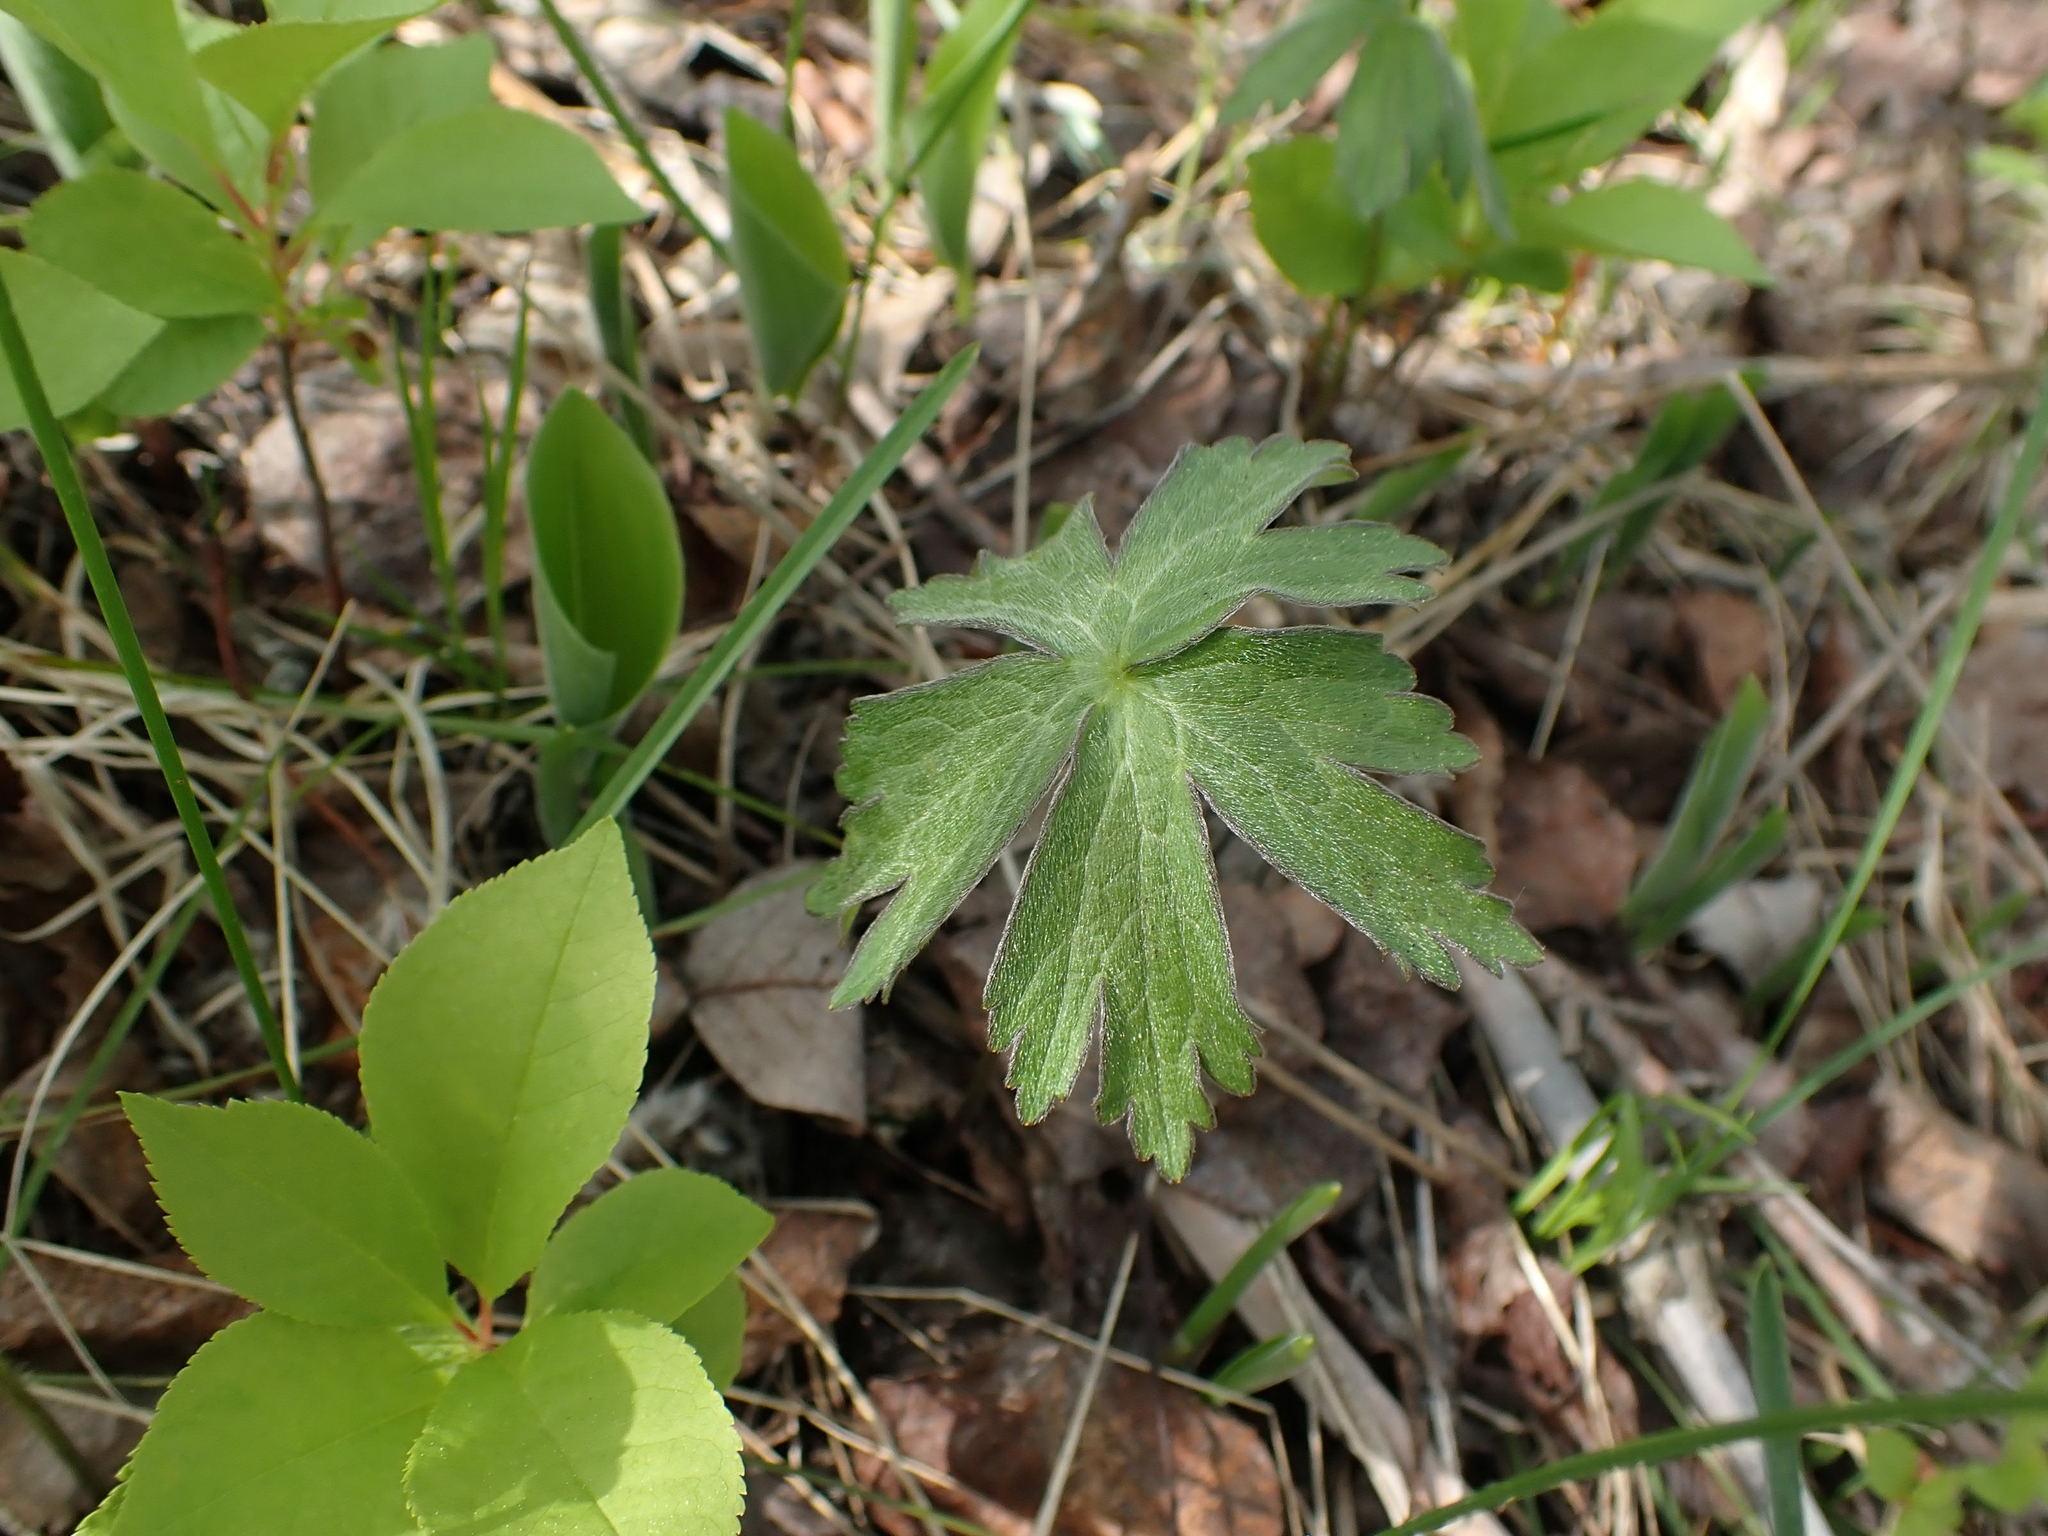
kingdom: Plantae
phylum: Tracheophyta
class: Magnoliopsida
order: Ranunculales
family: Ranunculaceae
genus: Anemonastrum
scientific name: Anemonastrum canadense
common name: Canada anemone
